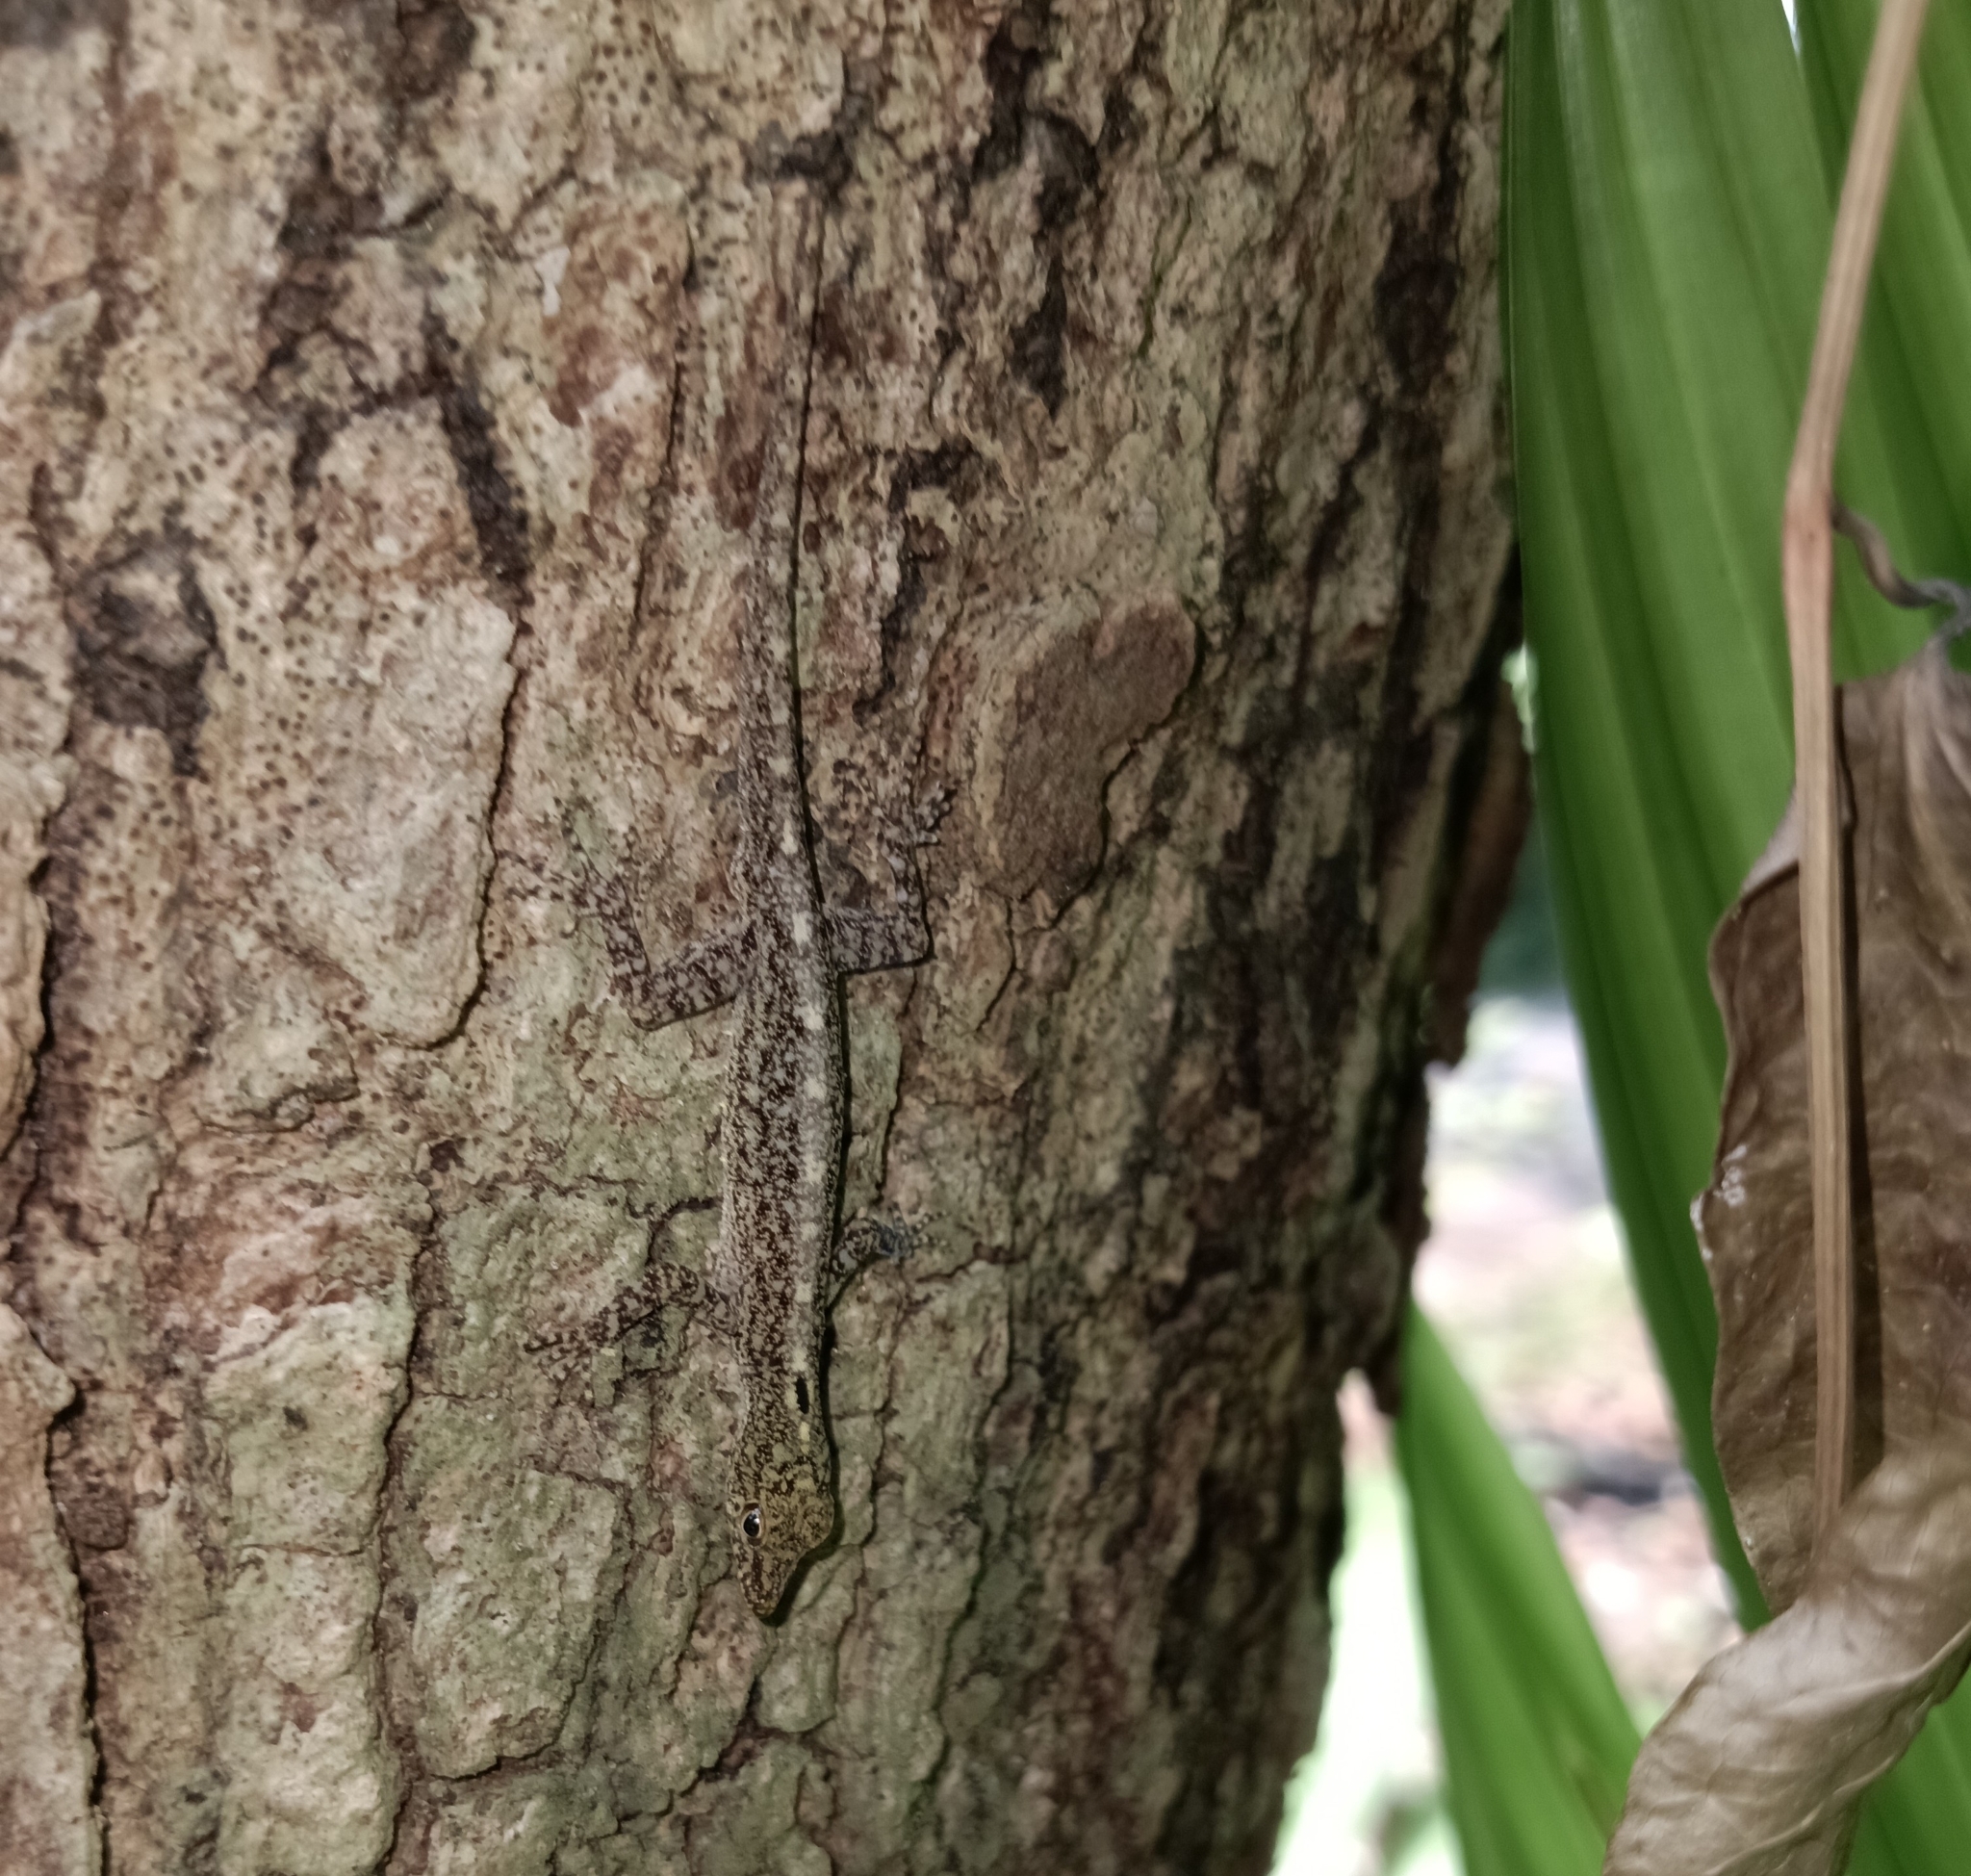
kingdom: Animalia
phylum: Chordata
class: Squamata
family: Gekkonidae
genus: Cnemaspis
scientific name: Cnemaspis littoralis
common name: Coastal day gecko
